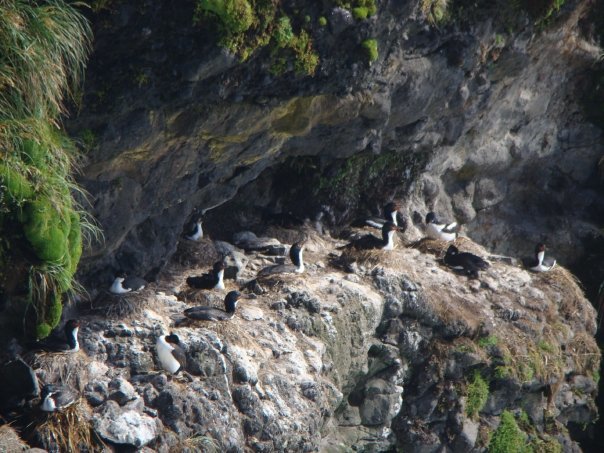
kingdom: Animalia
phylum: Chordata
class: Aves
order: Suliformes
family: Phalacrocoracidae
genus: Leucocarbo
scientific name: Leucocarbo colensoi
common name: Auckland shag
